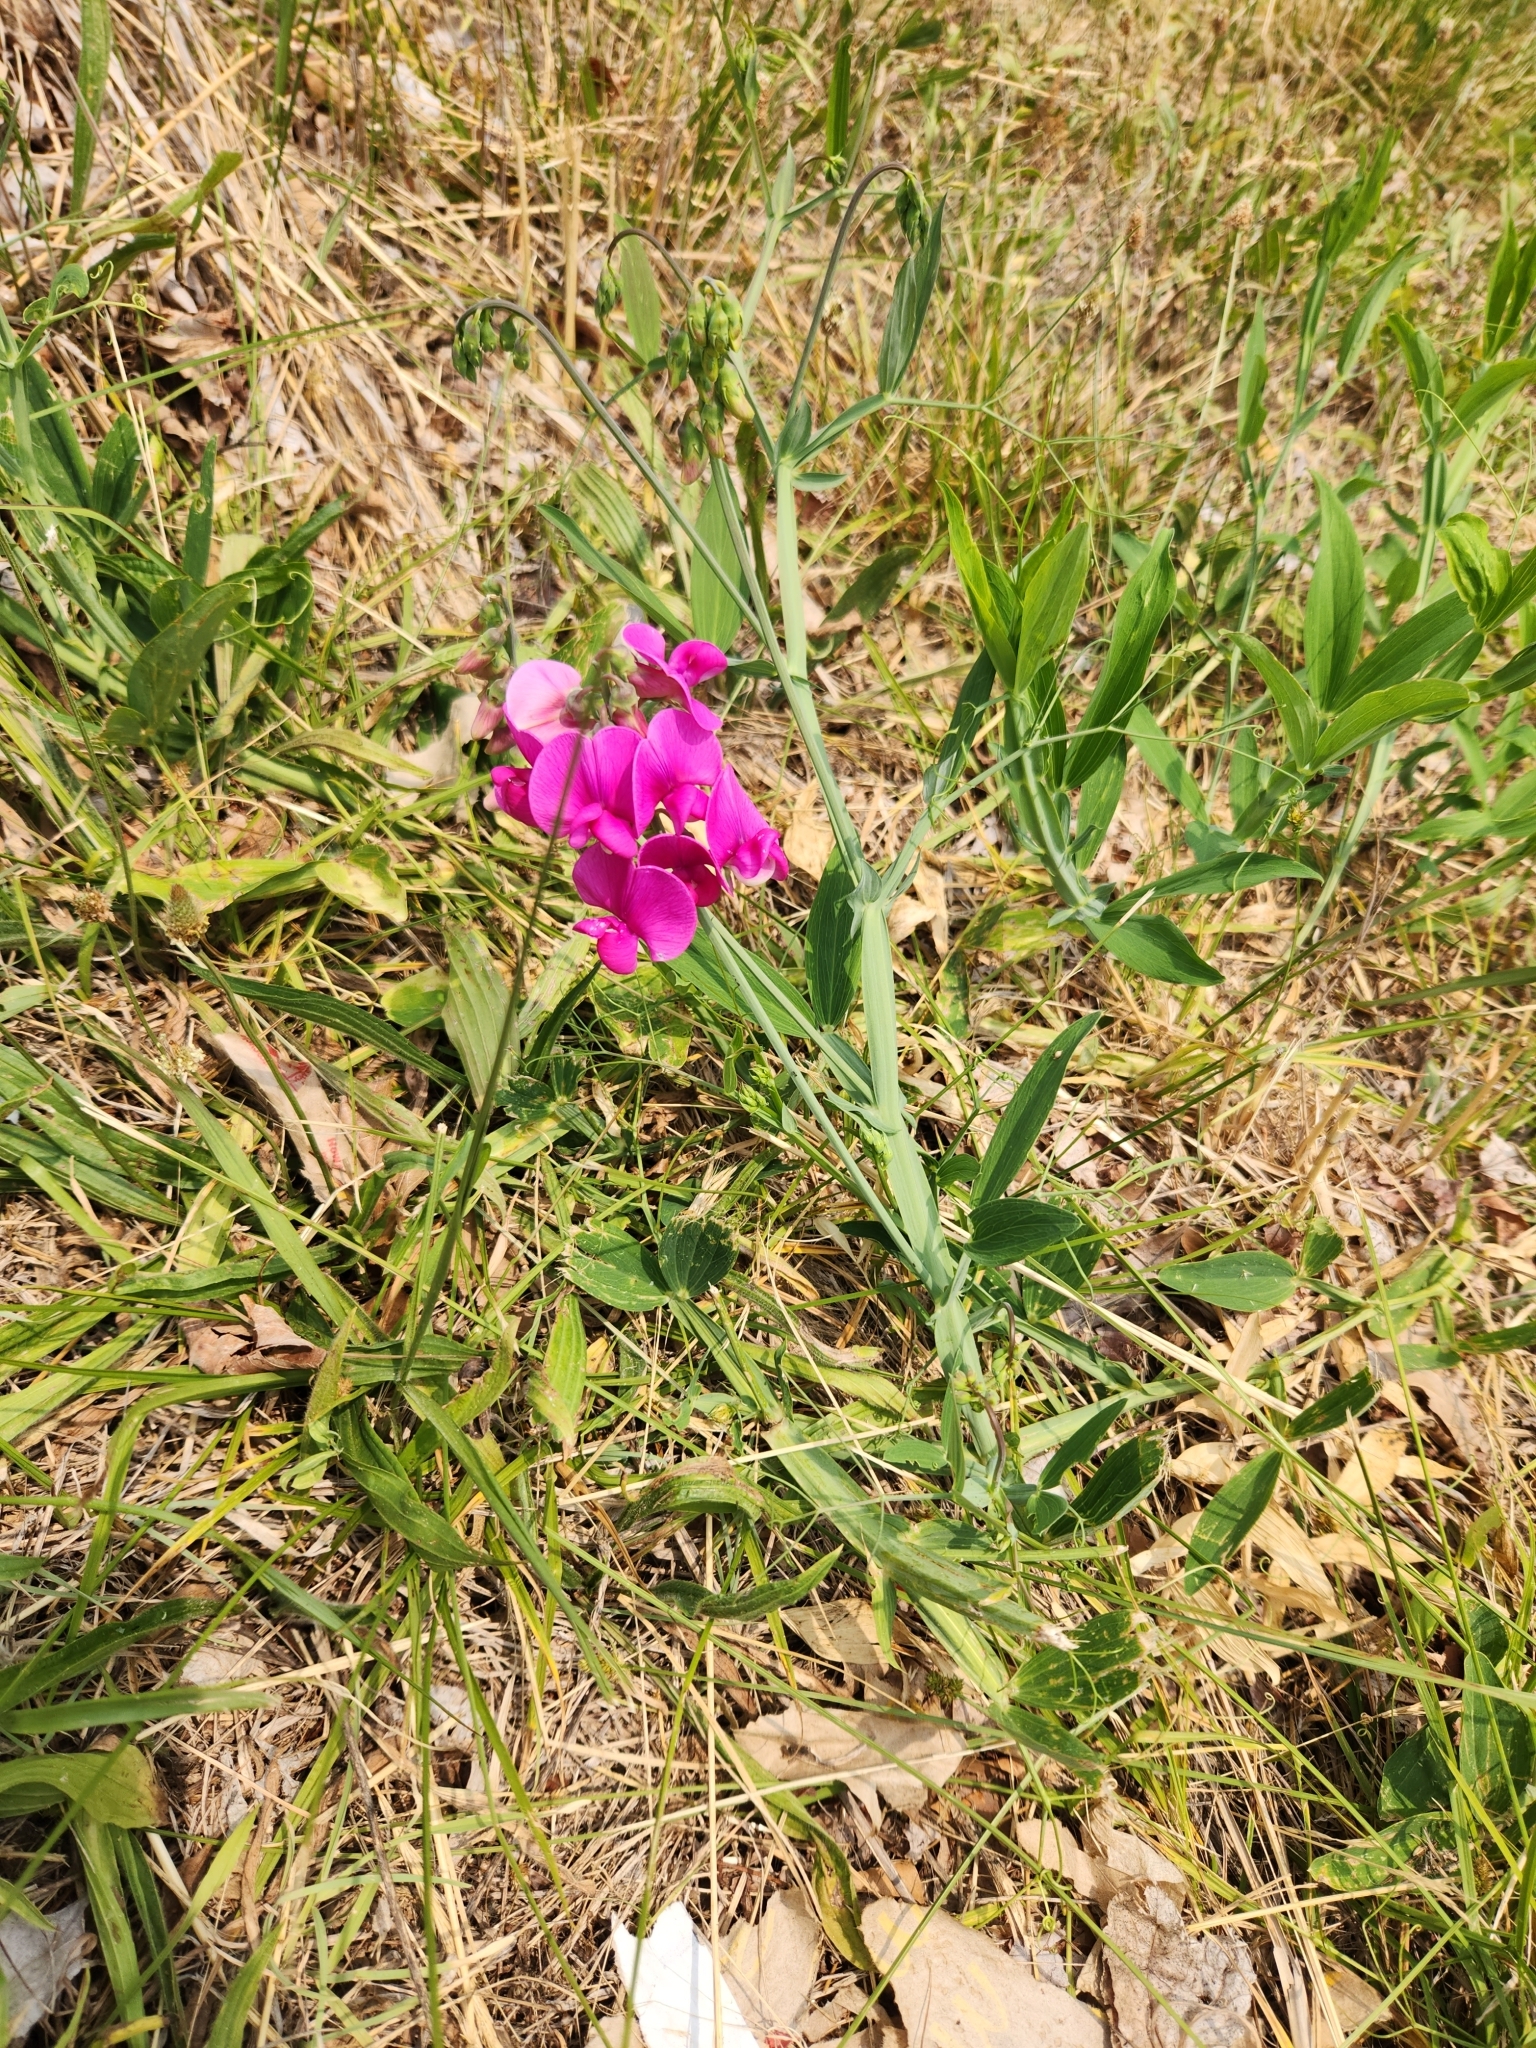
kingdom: Plantae
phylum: Tracheophyta
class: Magnoliopsida
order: Fabales
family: Fabaceae
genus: Lathyrus
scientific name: Lathyrus latifolius
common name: Perennial pea
